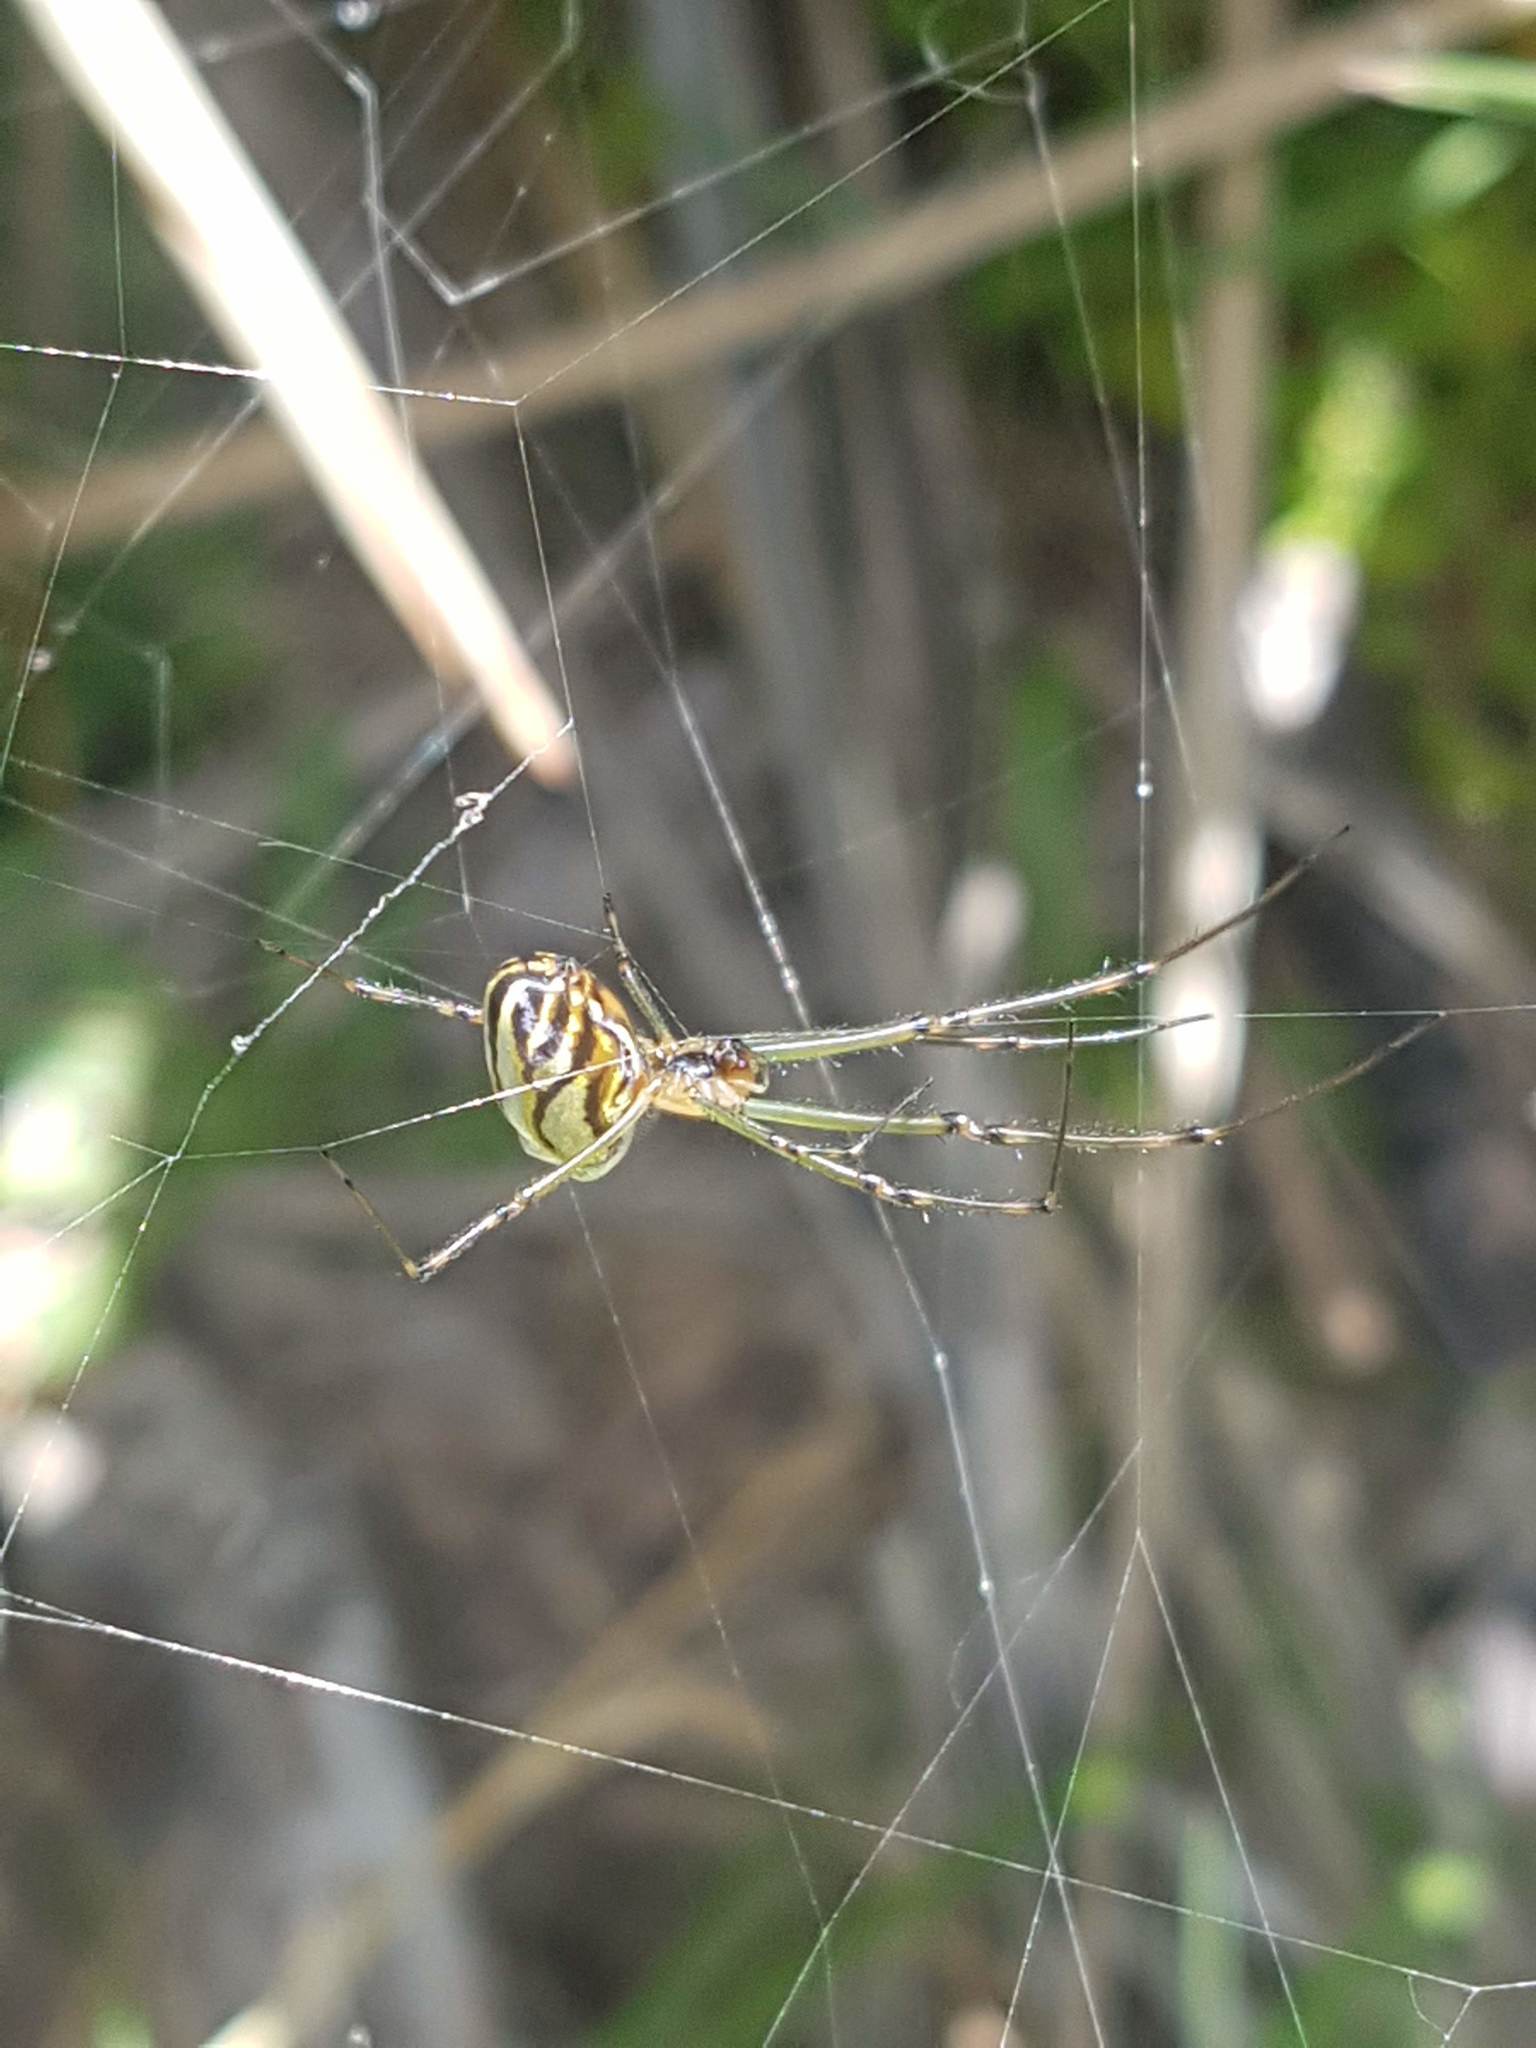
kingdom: Animalia
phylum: Arthropoda
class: Arachnida
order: Araneae
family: Tetragnathidae
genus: Leucauge
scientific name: Leucauge dromedaria
